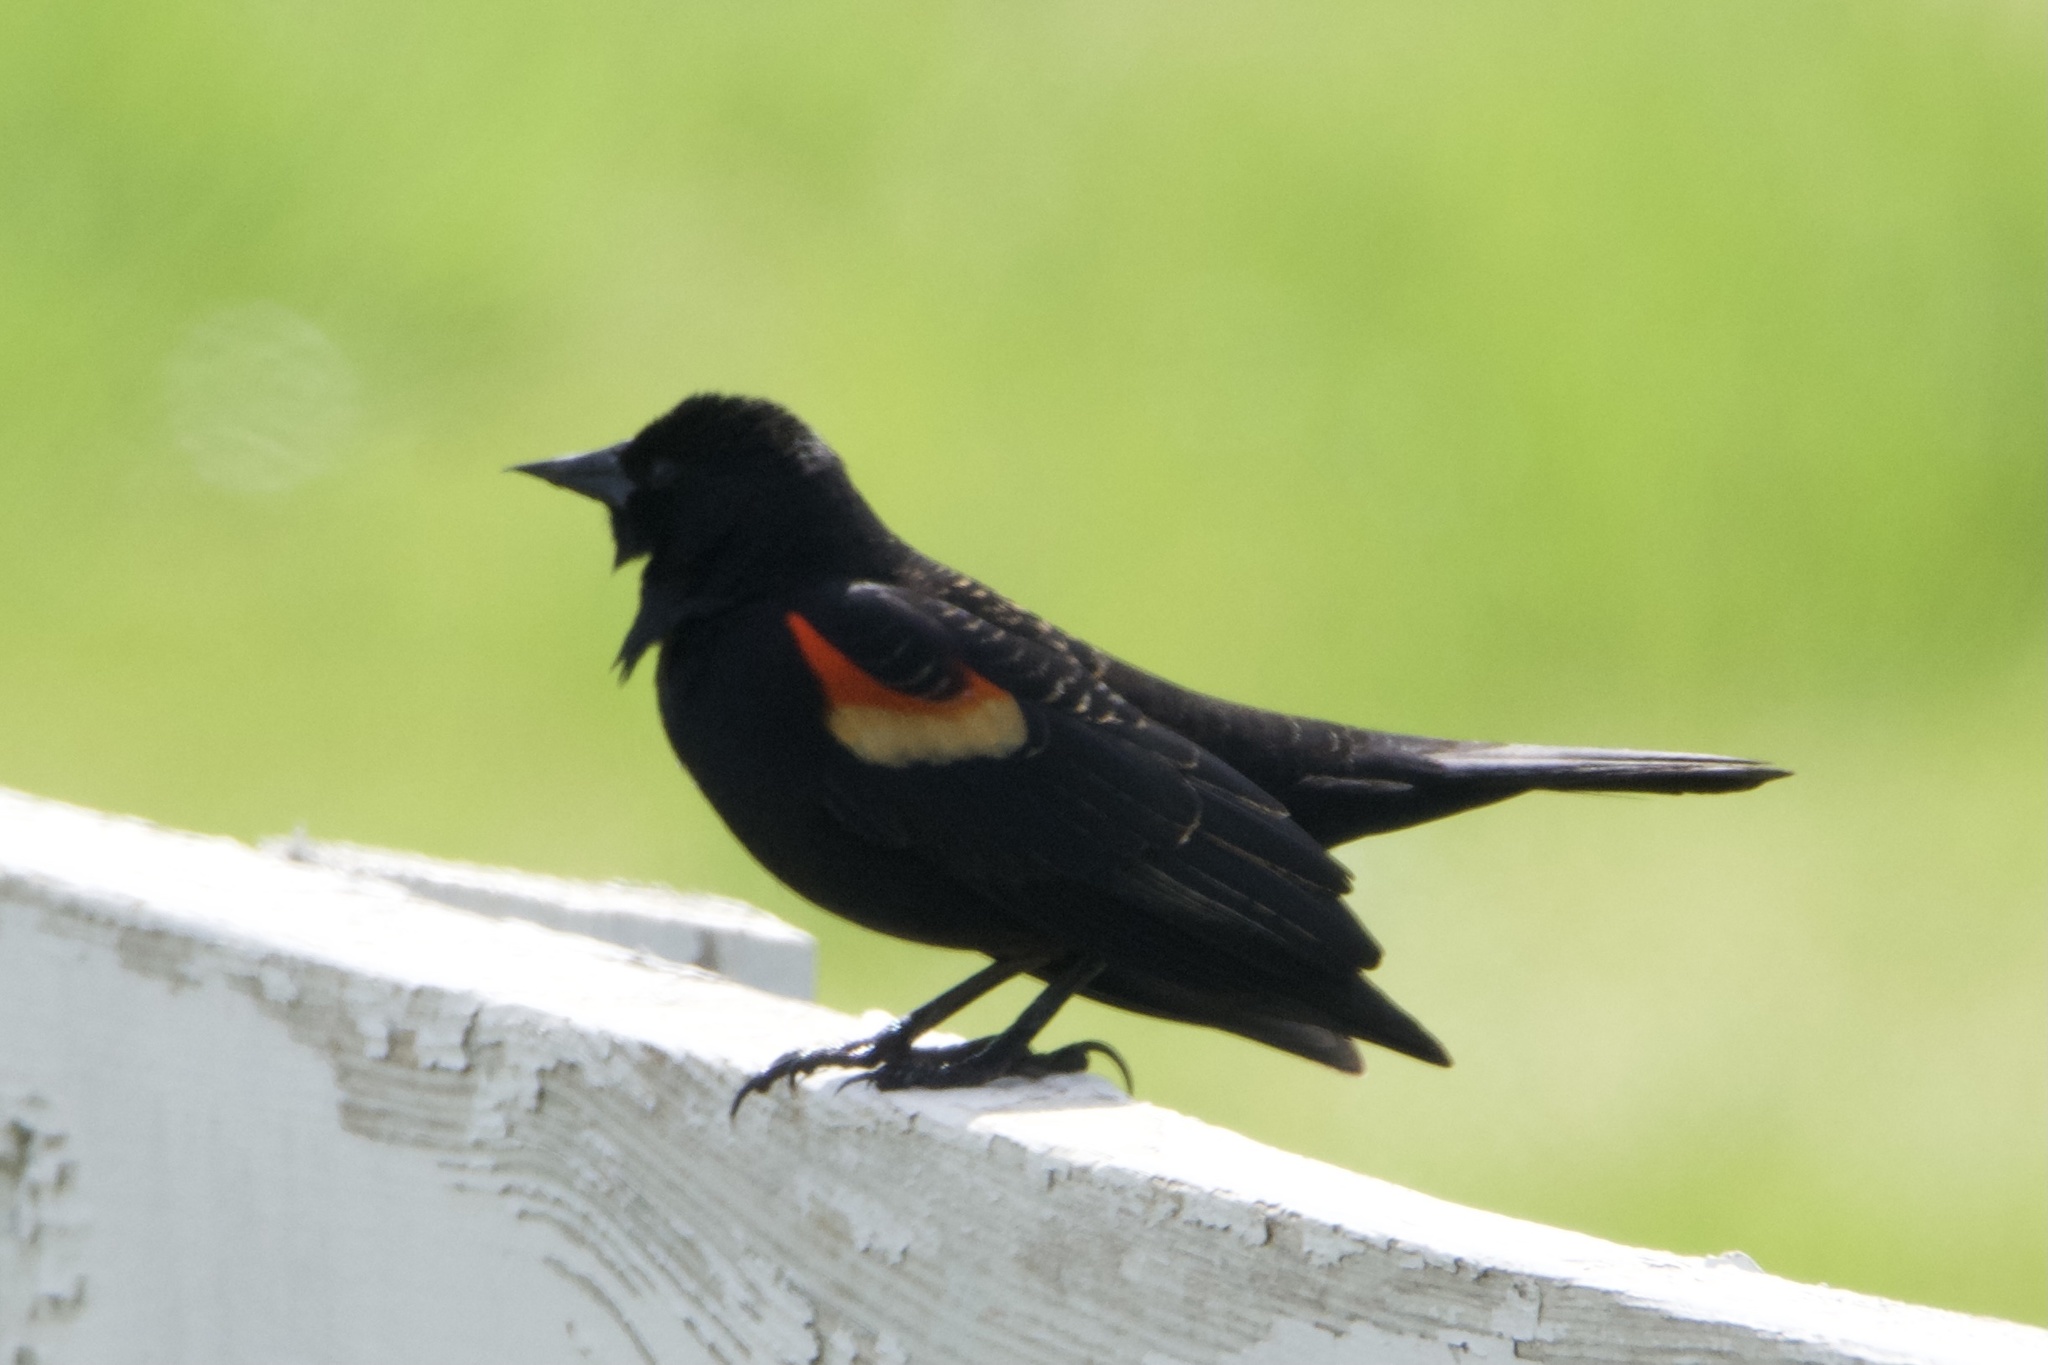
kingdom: Animalia
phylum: Chordata
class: Aves
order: Passeriformes
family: Icteridae
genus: Agelaius
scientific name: Agelaius phoeniceus
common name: Red-winged blackbird
